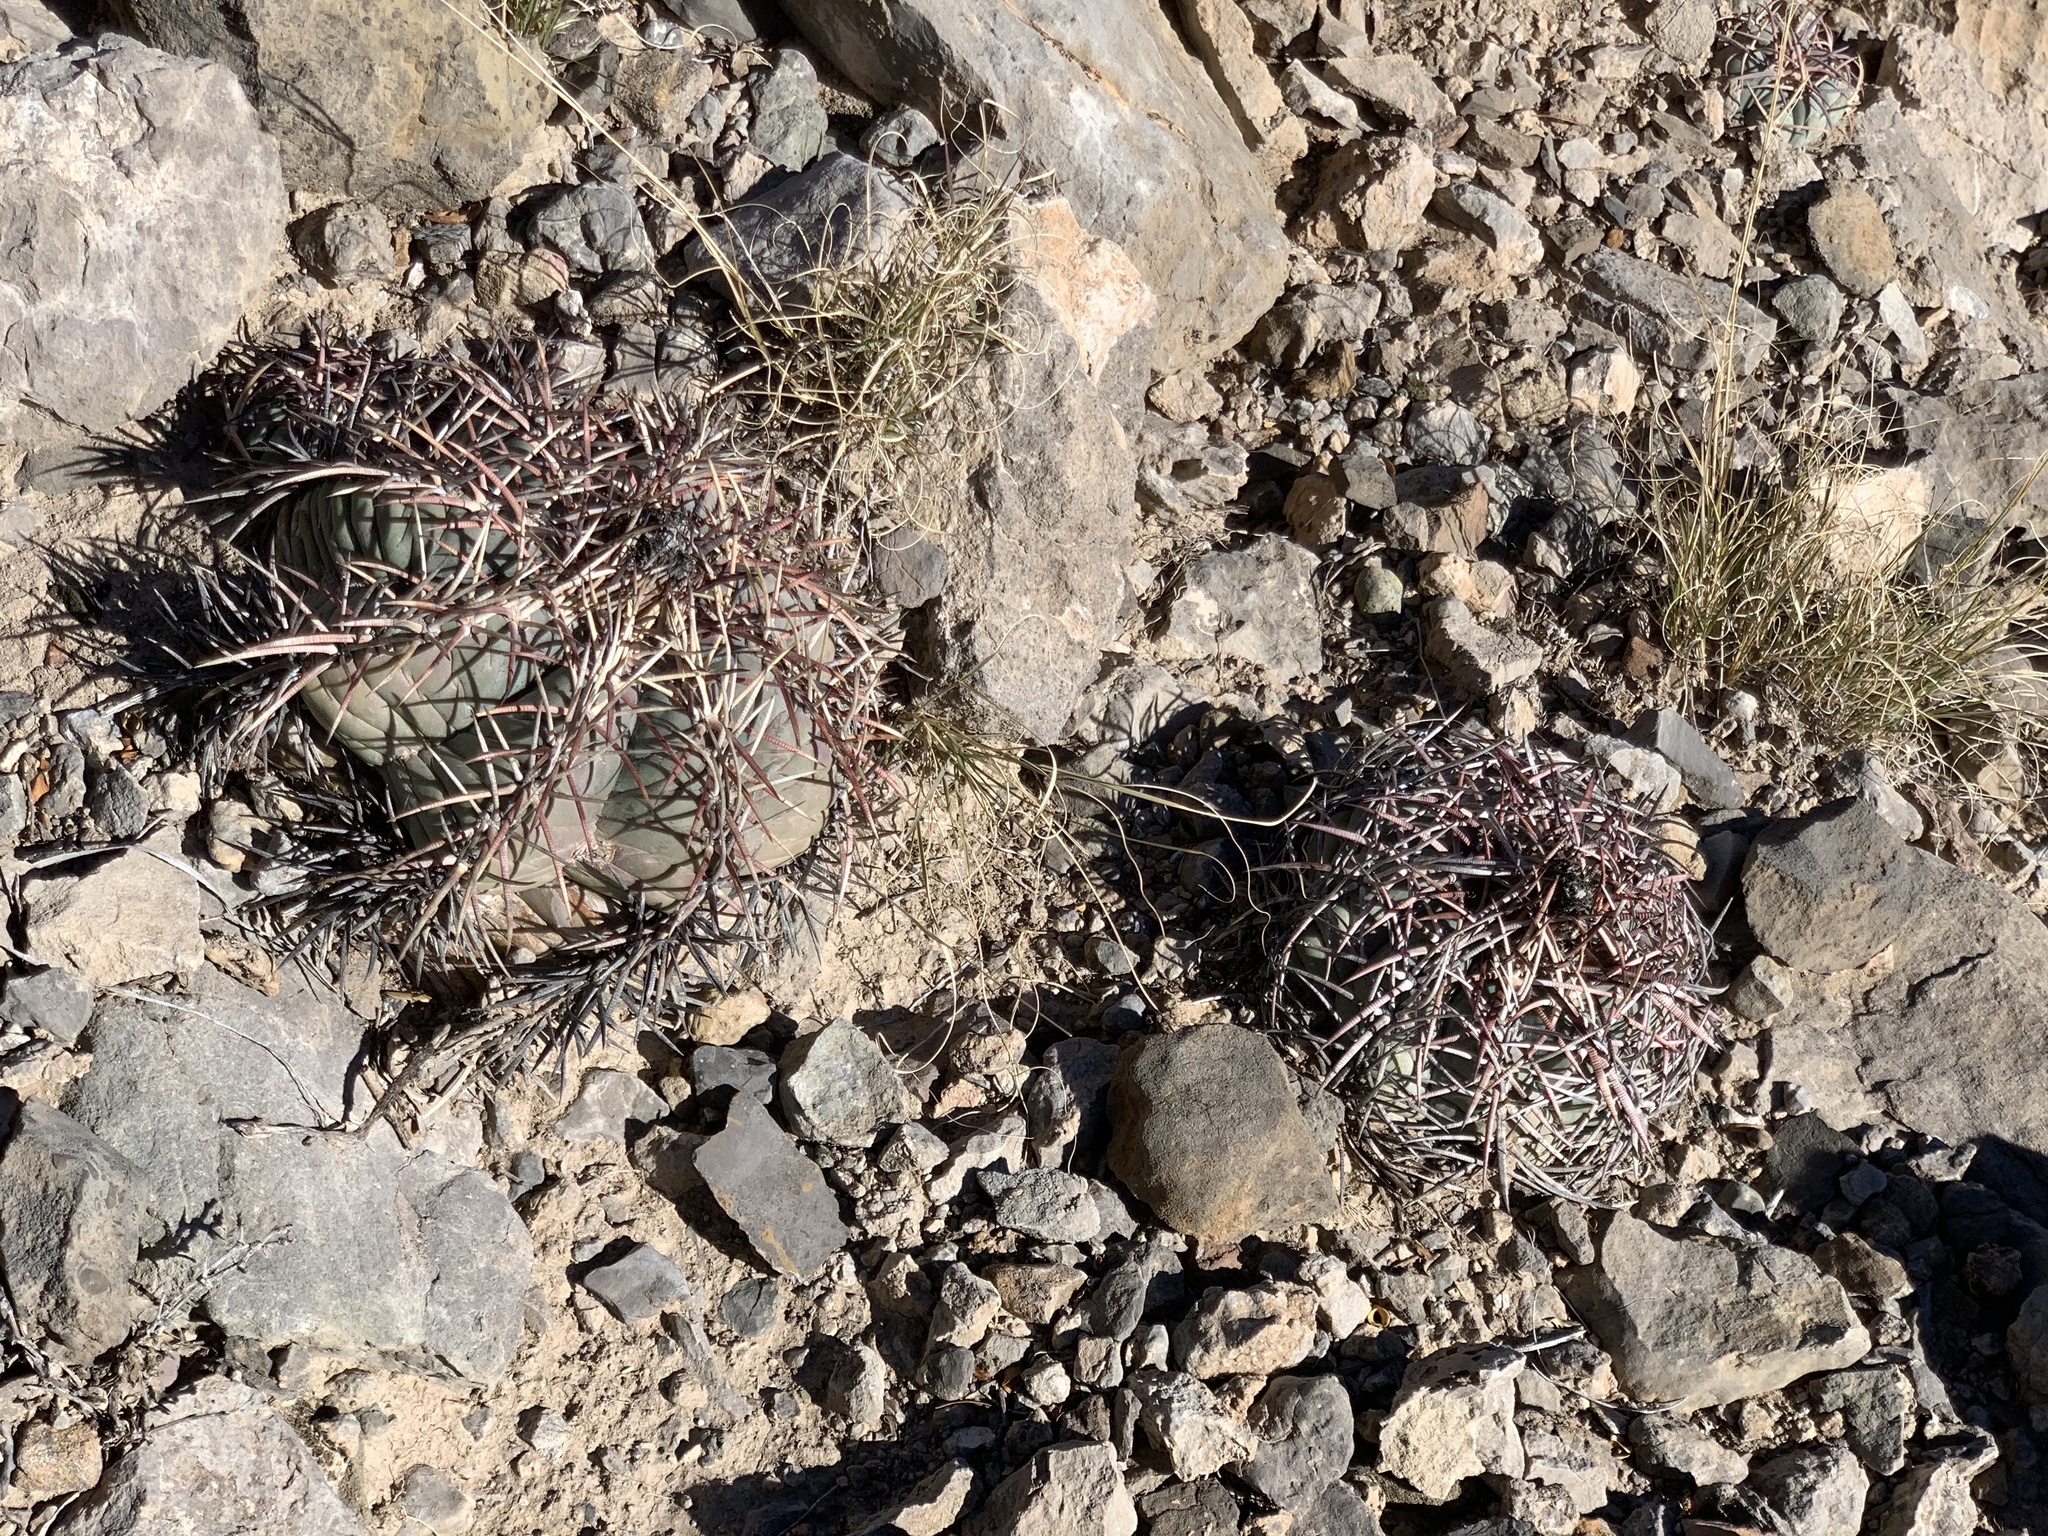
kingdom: Plantae
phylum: Tracheophyta
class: Magnoliopsida
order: Caryophyllales
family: Cactaceae
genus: Echinocactus
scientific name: Echinocactus horizonthalonius
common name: Devilshead
